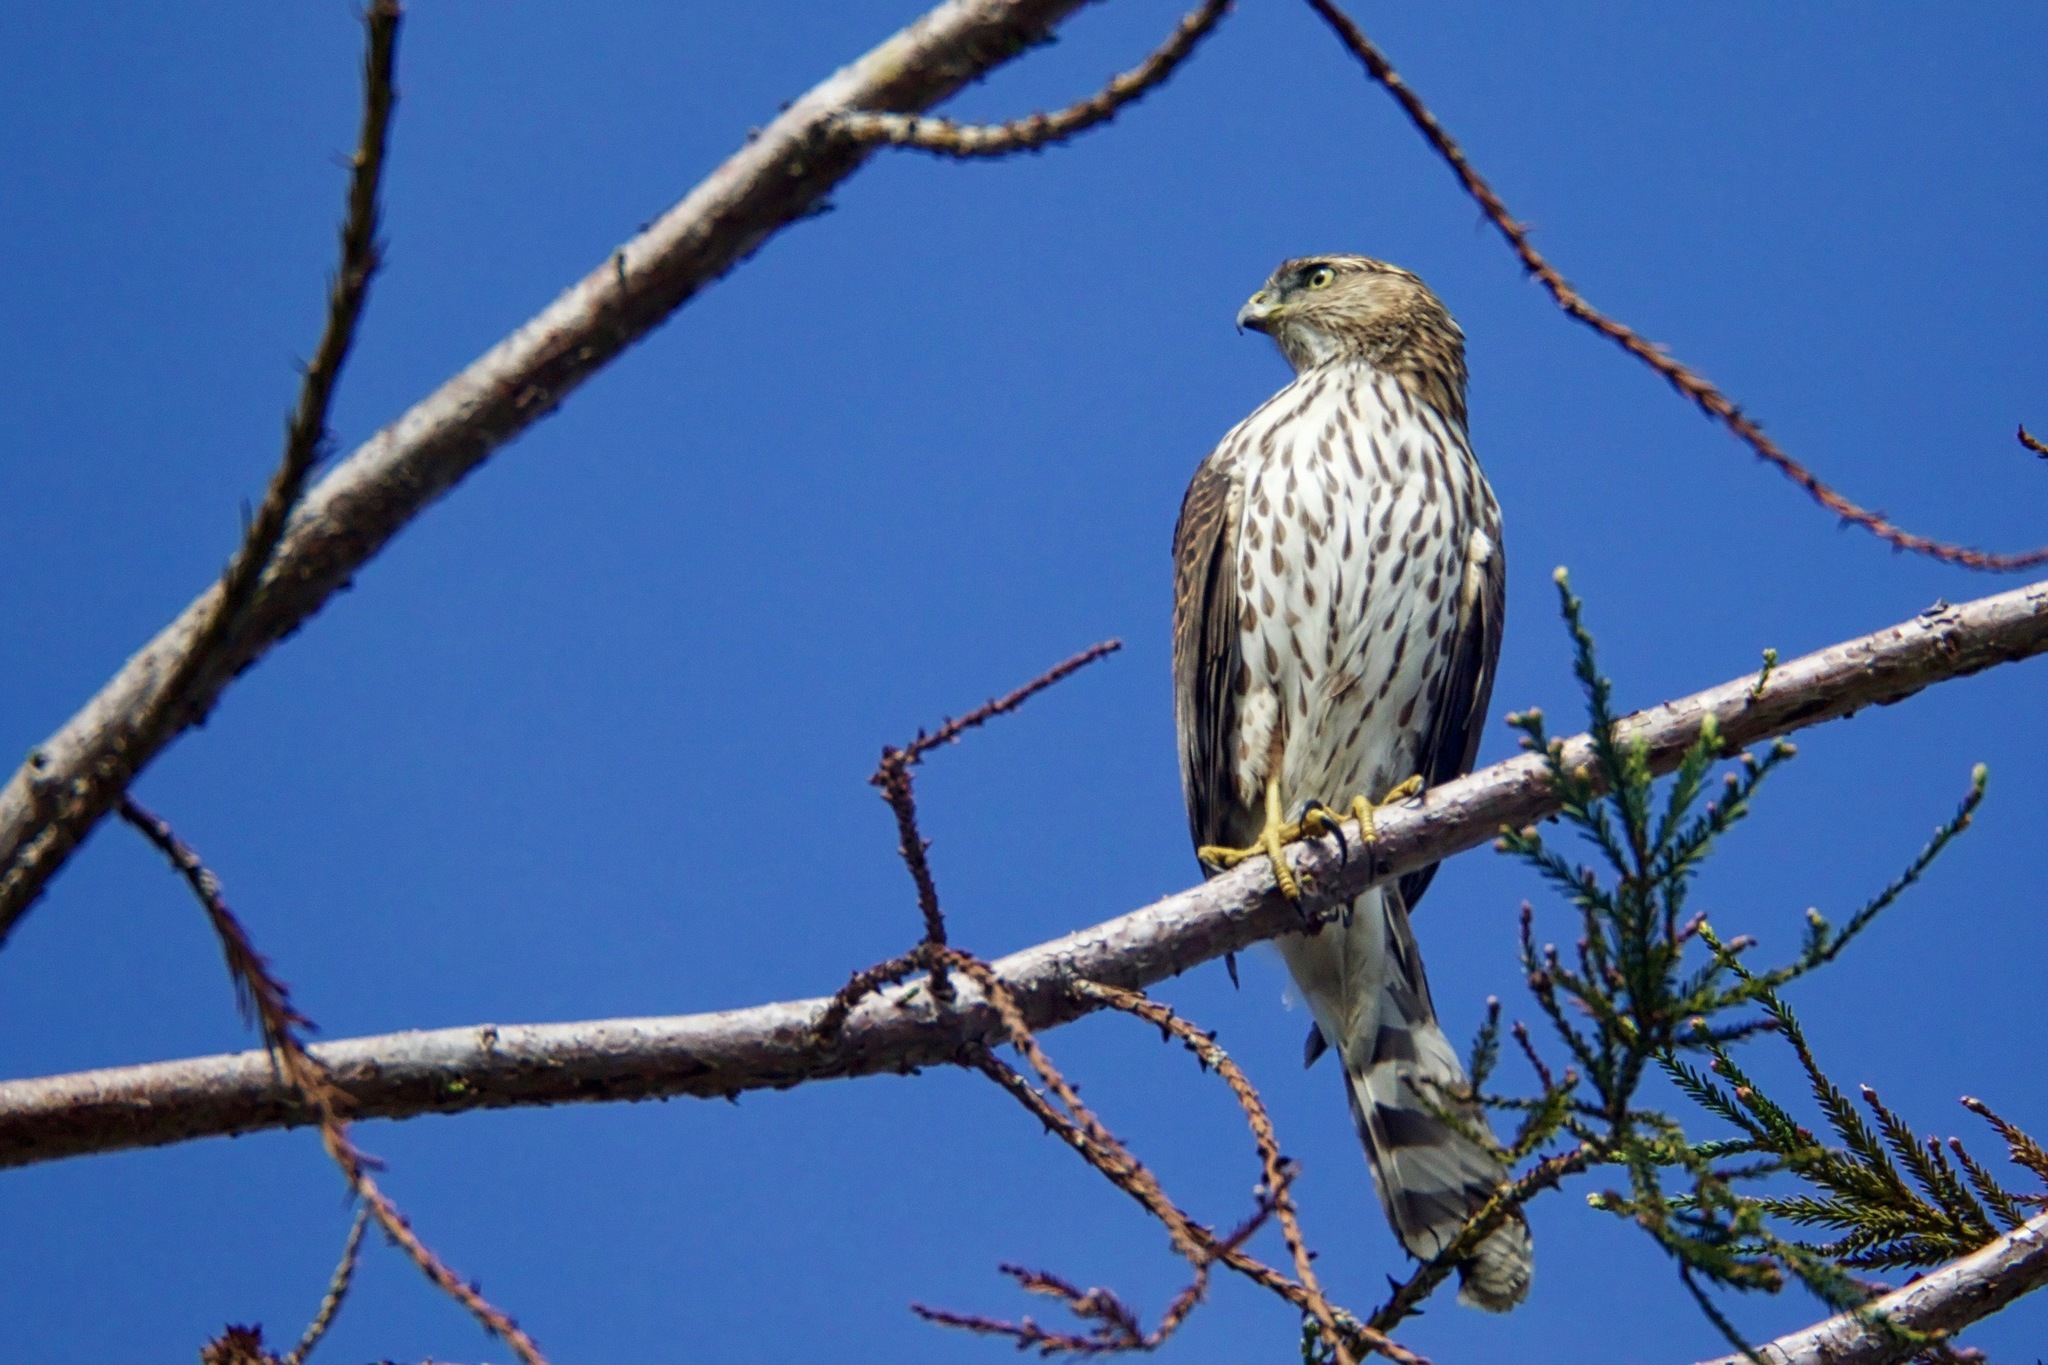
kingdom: Animalia
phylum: Chordata
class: Aves
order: Accipitriformes
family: Accipitridae
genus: Accipiter
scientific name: Accipiter cooperii
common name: Cooper's hawk
